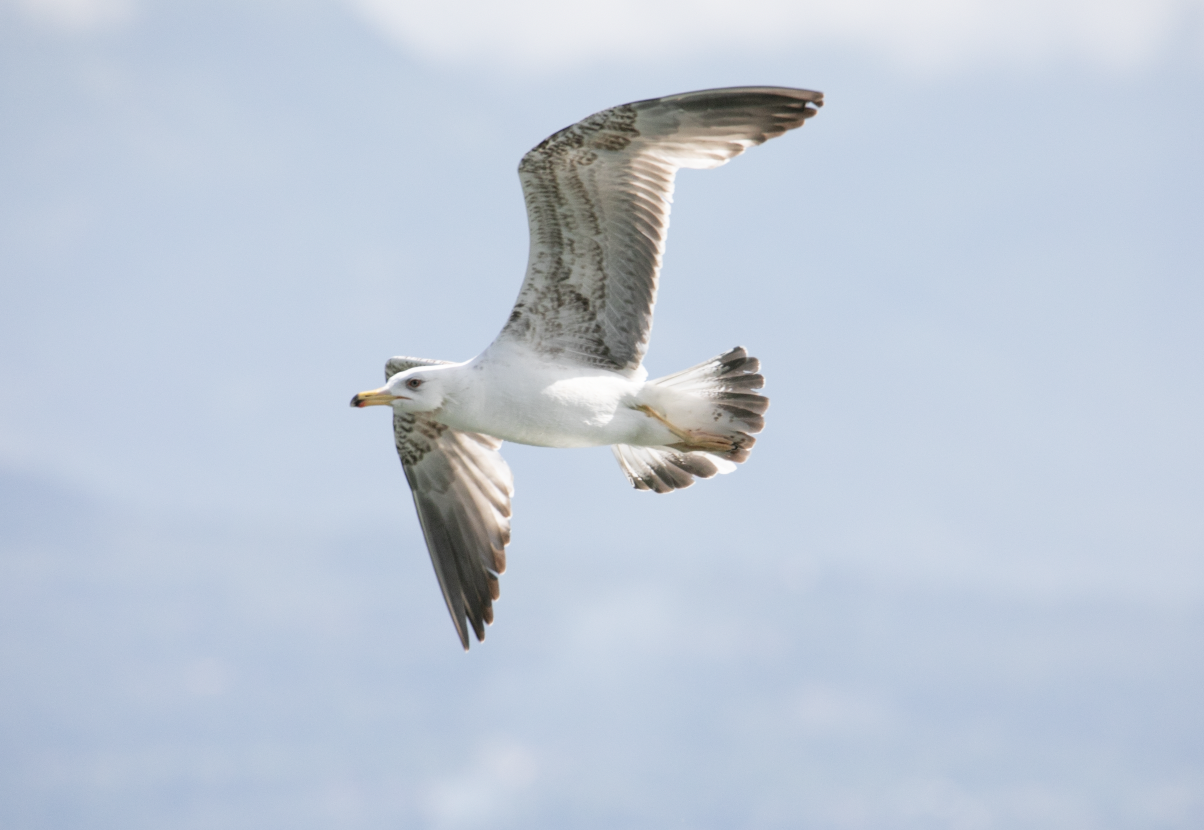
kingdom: Animalia
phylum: Chordata
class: Aves
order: Charadriiformes
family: Laridae
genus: Larus
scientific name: Larus michahellis
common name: Yellow-legged gull
